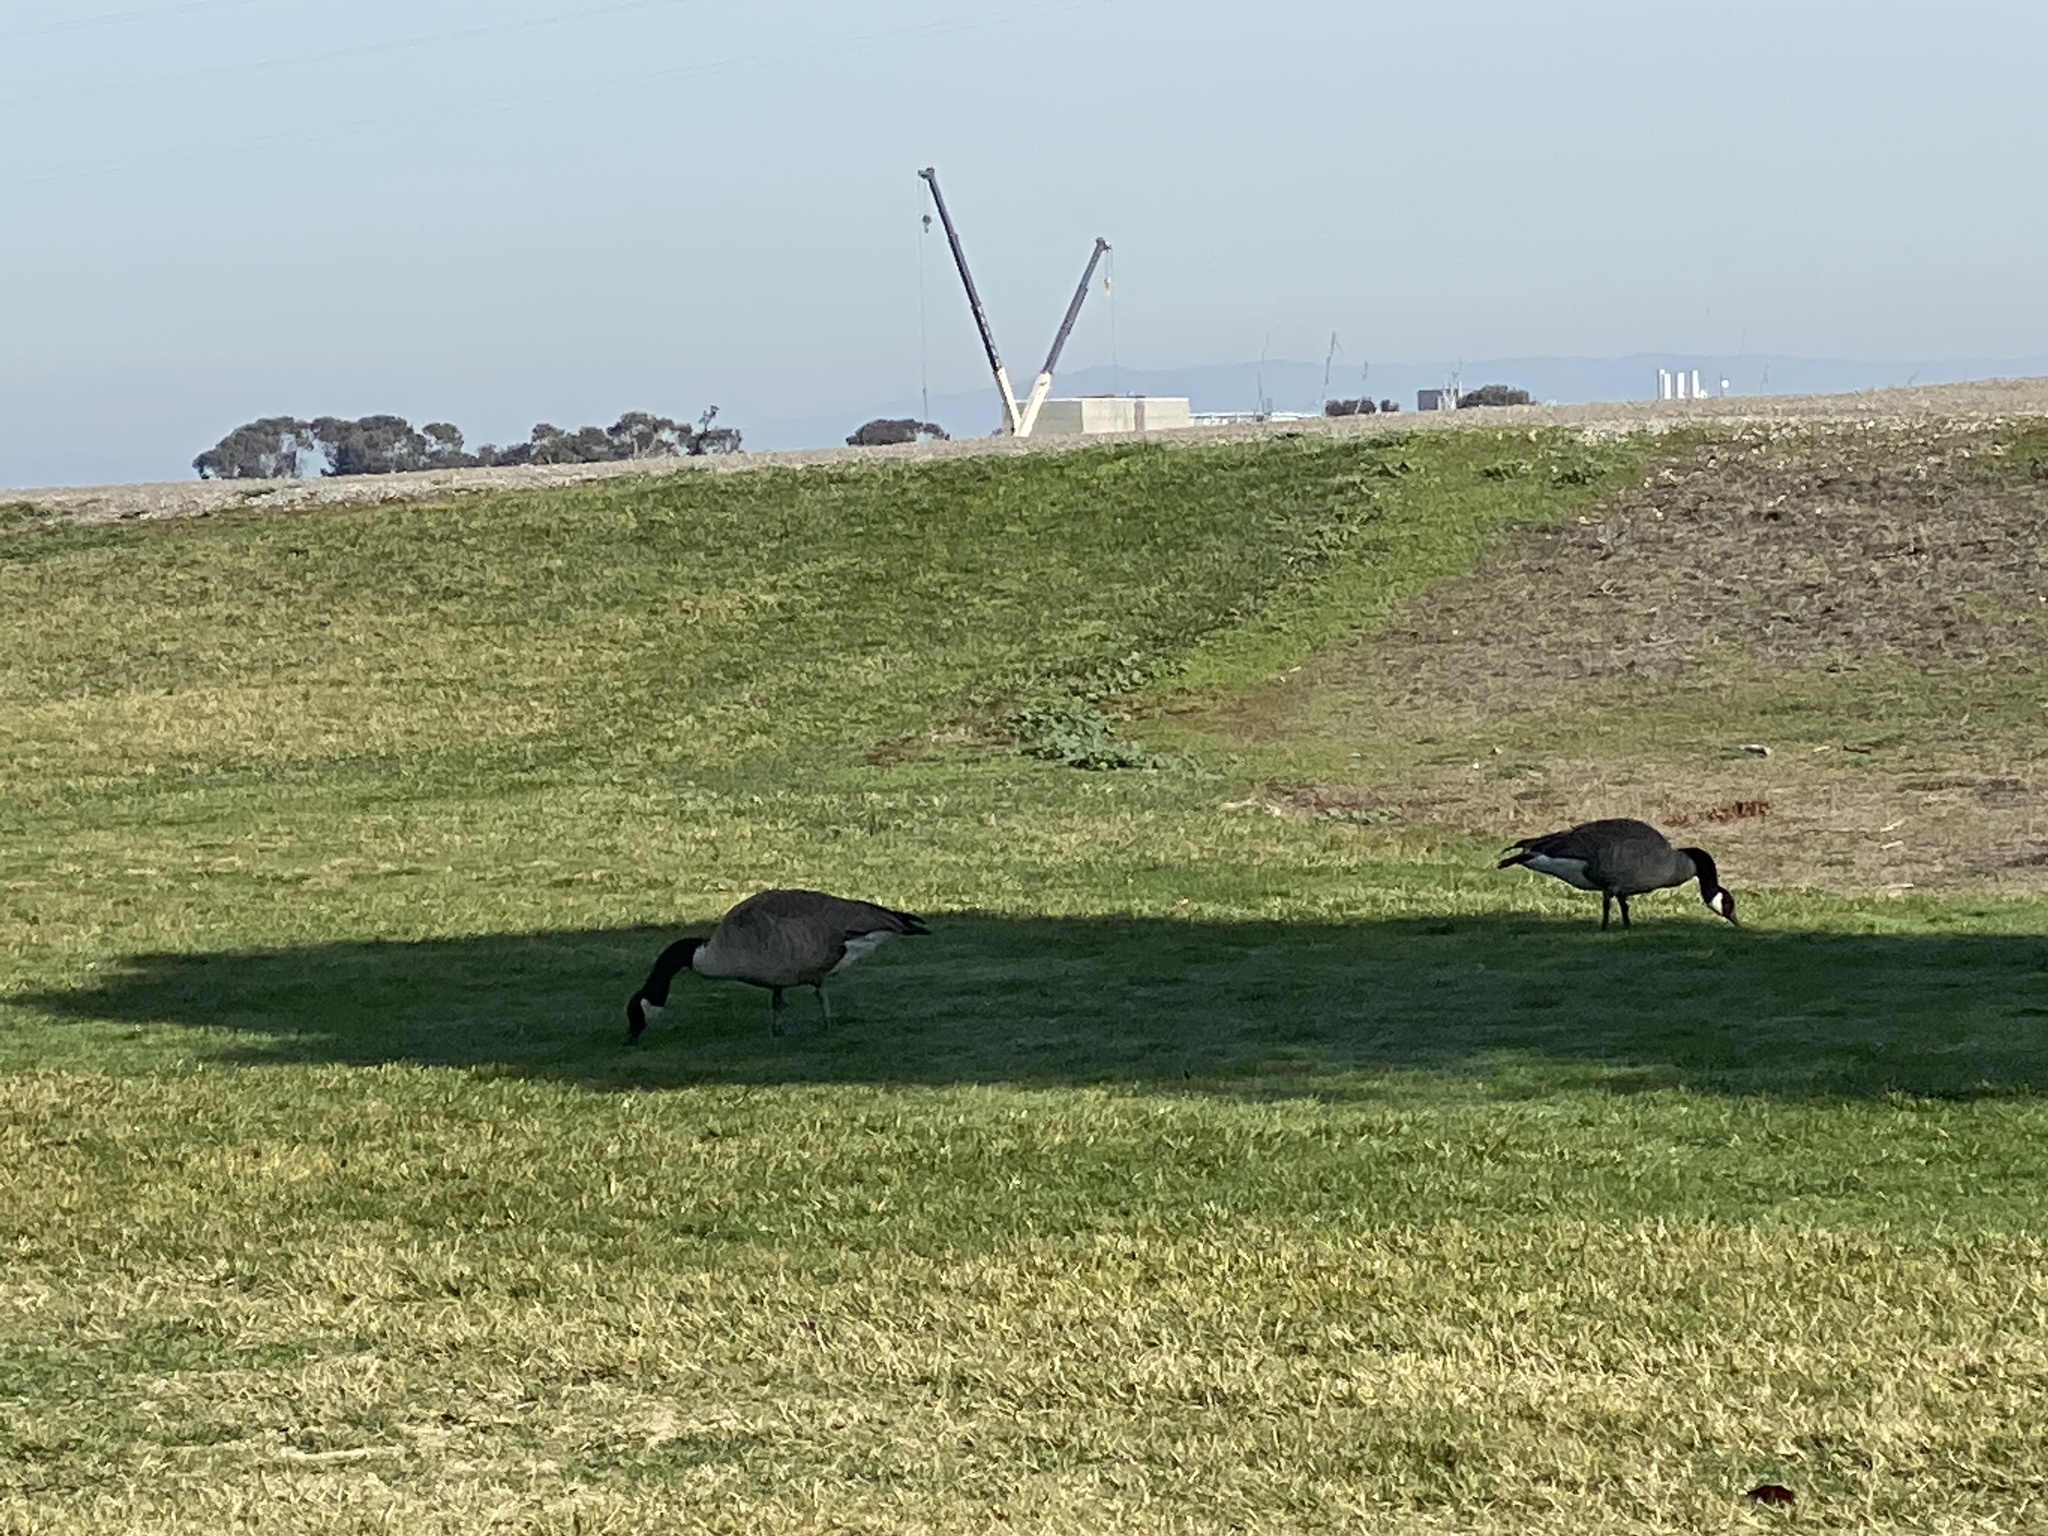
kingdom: Animalia
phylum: Chordata
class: Aves
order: Anseriformes
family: Anatidae
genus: Branta
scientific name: Branta canadensis
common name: Canada goose
